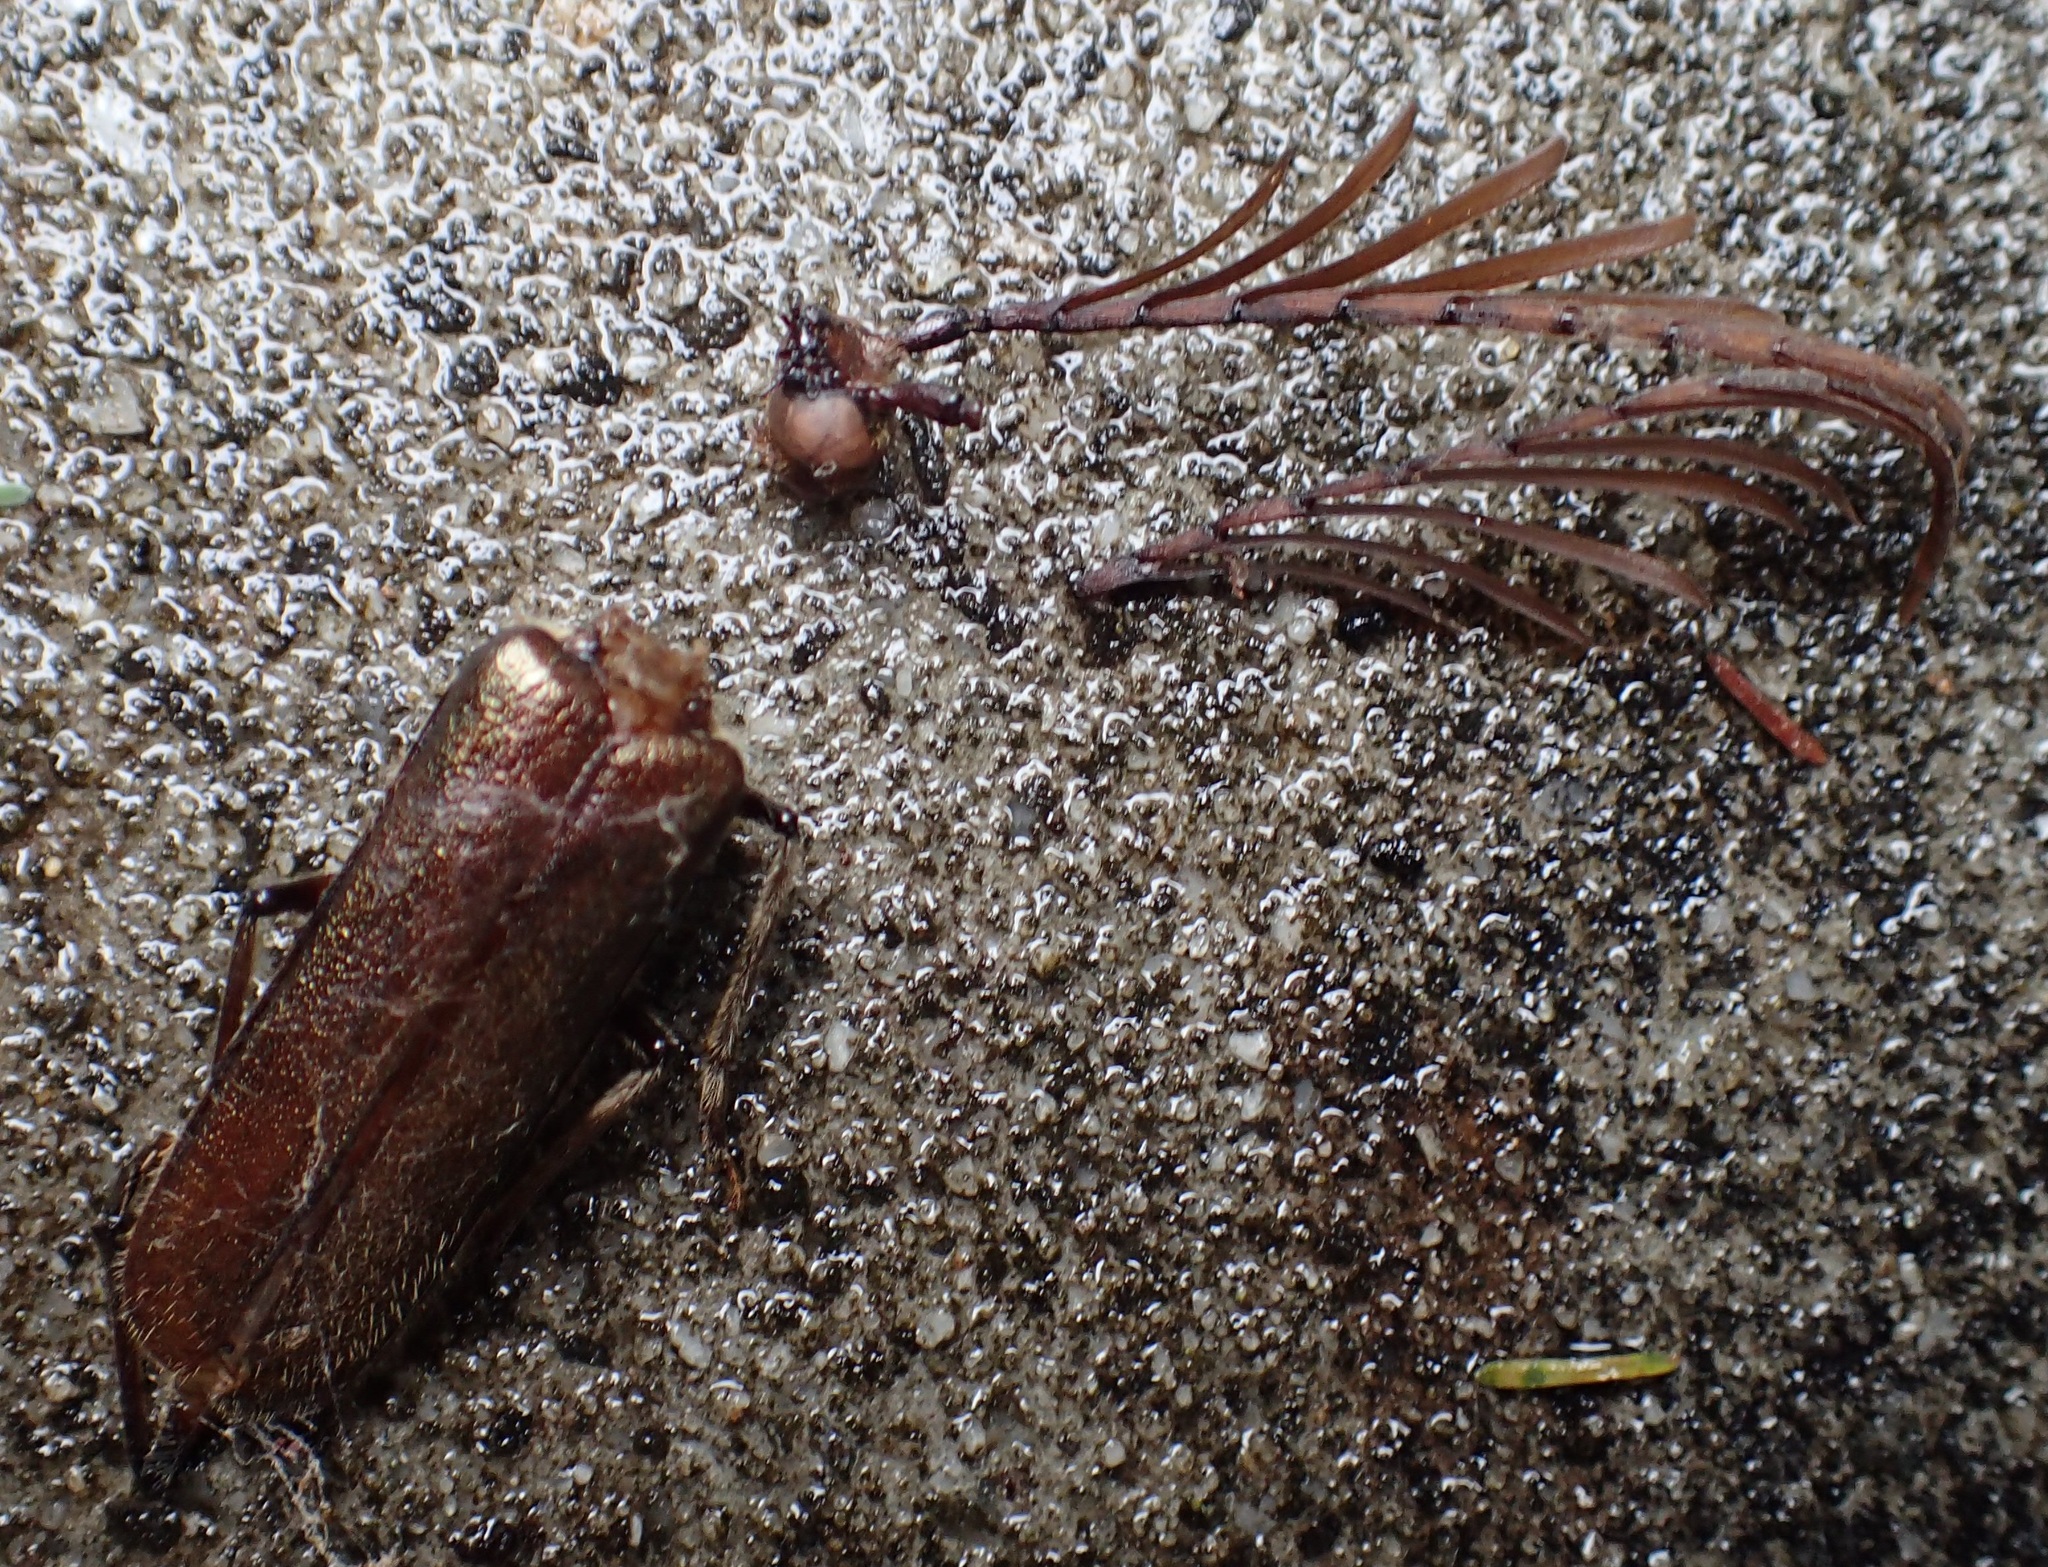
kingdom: Animalia
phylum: Arthropoda
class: Insecta
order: Coleoptera
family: Cerambycidae
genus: Enneaphyllus
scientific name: Enneaphyllus aeneipennis
